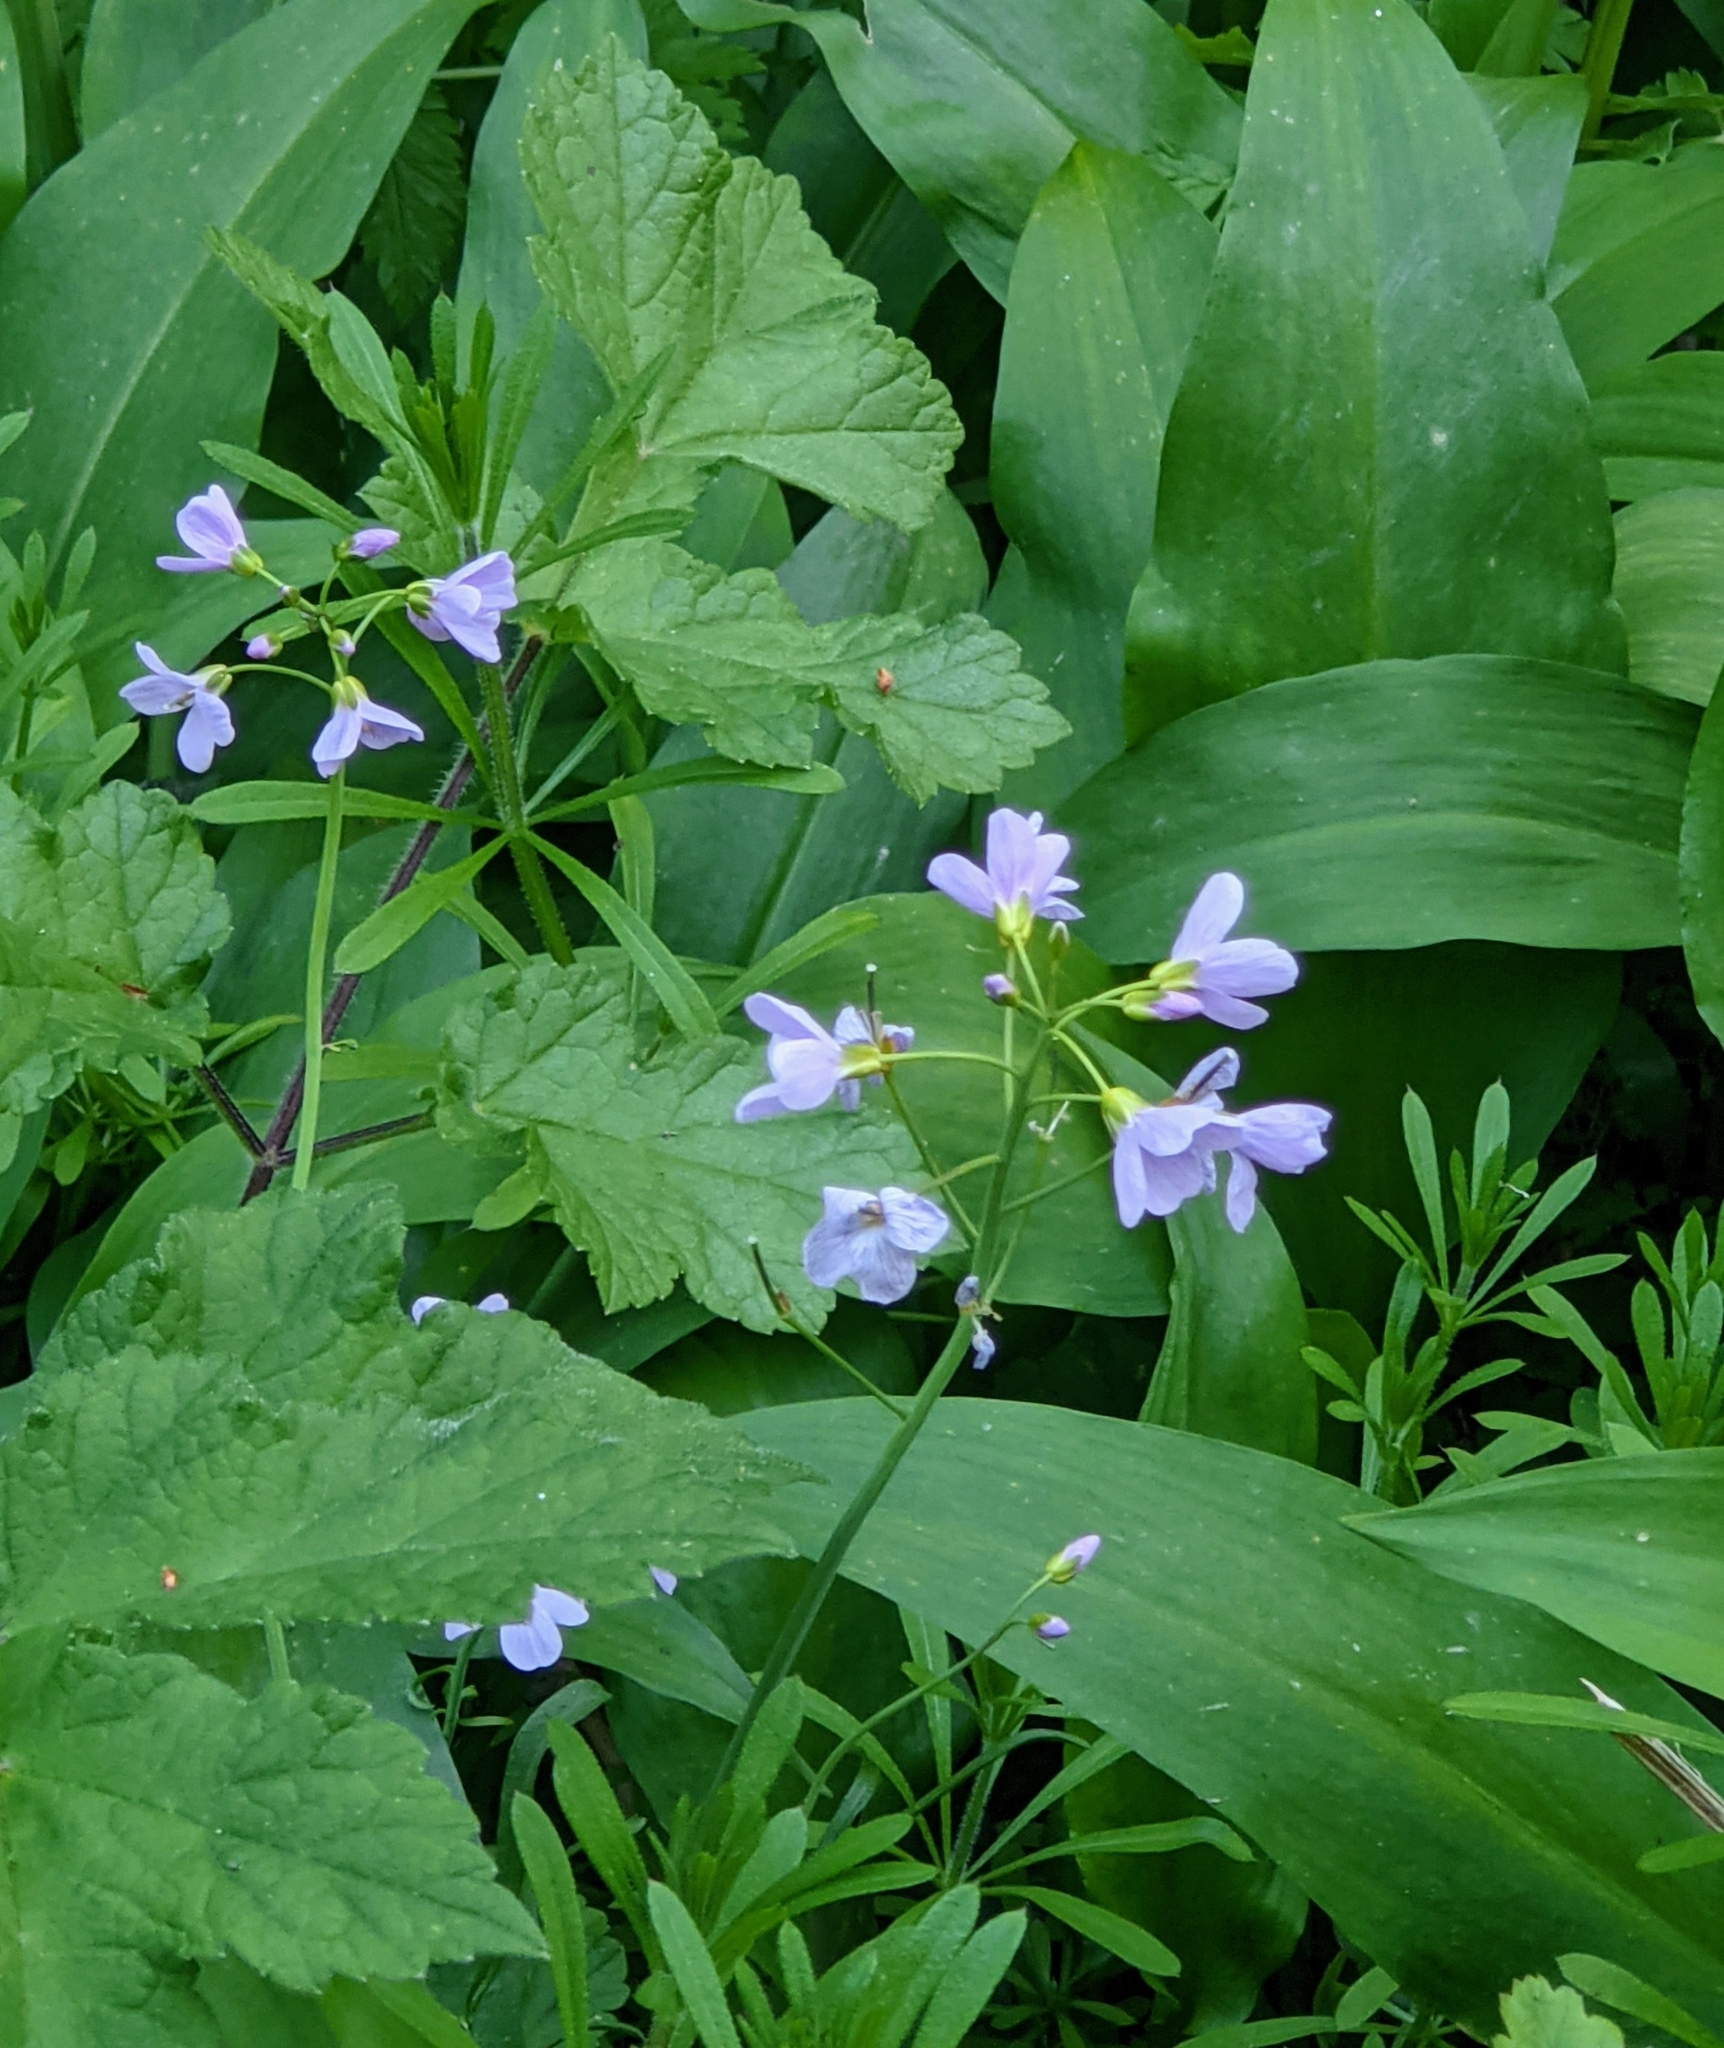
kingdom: Plantae
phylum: Tracheophyta
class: Magnoliopsida
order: Brassicales
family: Brassicaceae
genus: Cardamine
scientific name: Cardamine pratensis
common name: Cuckoo flower
